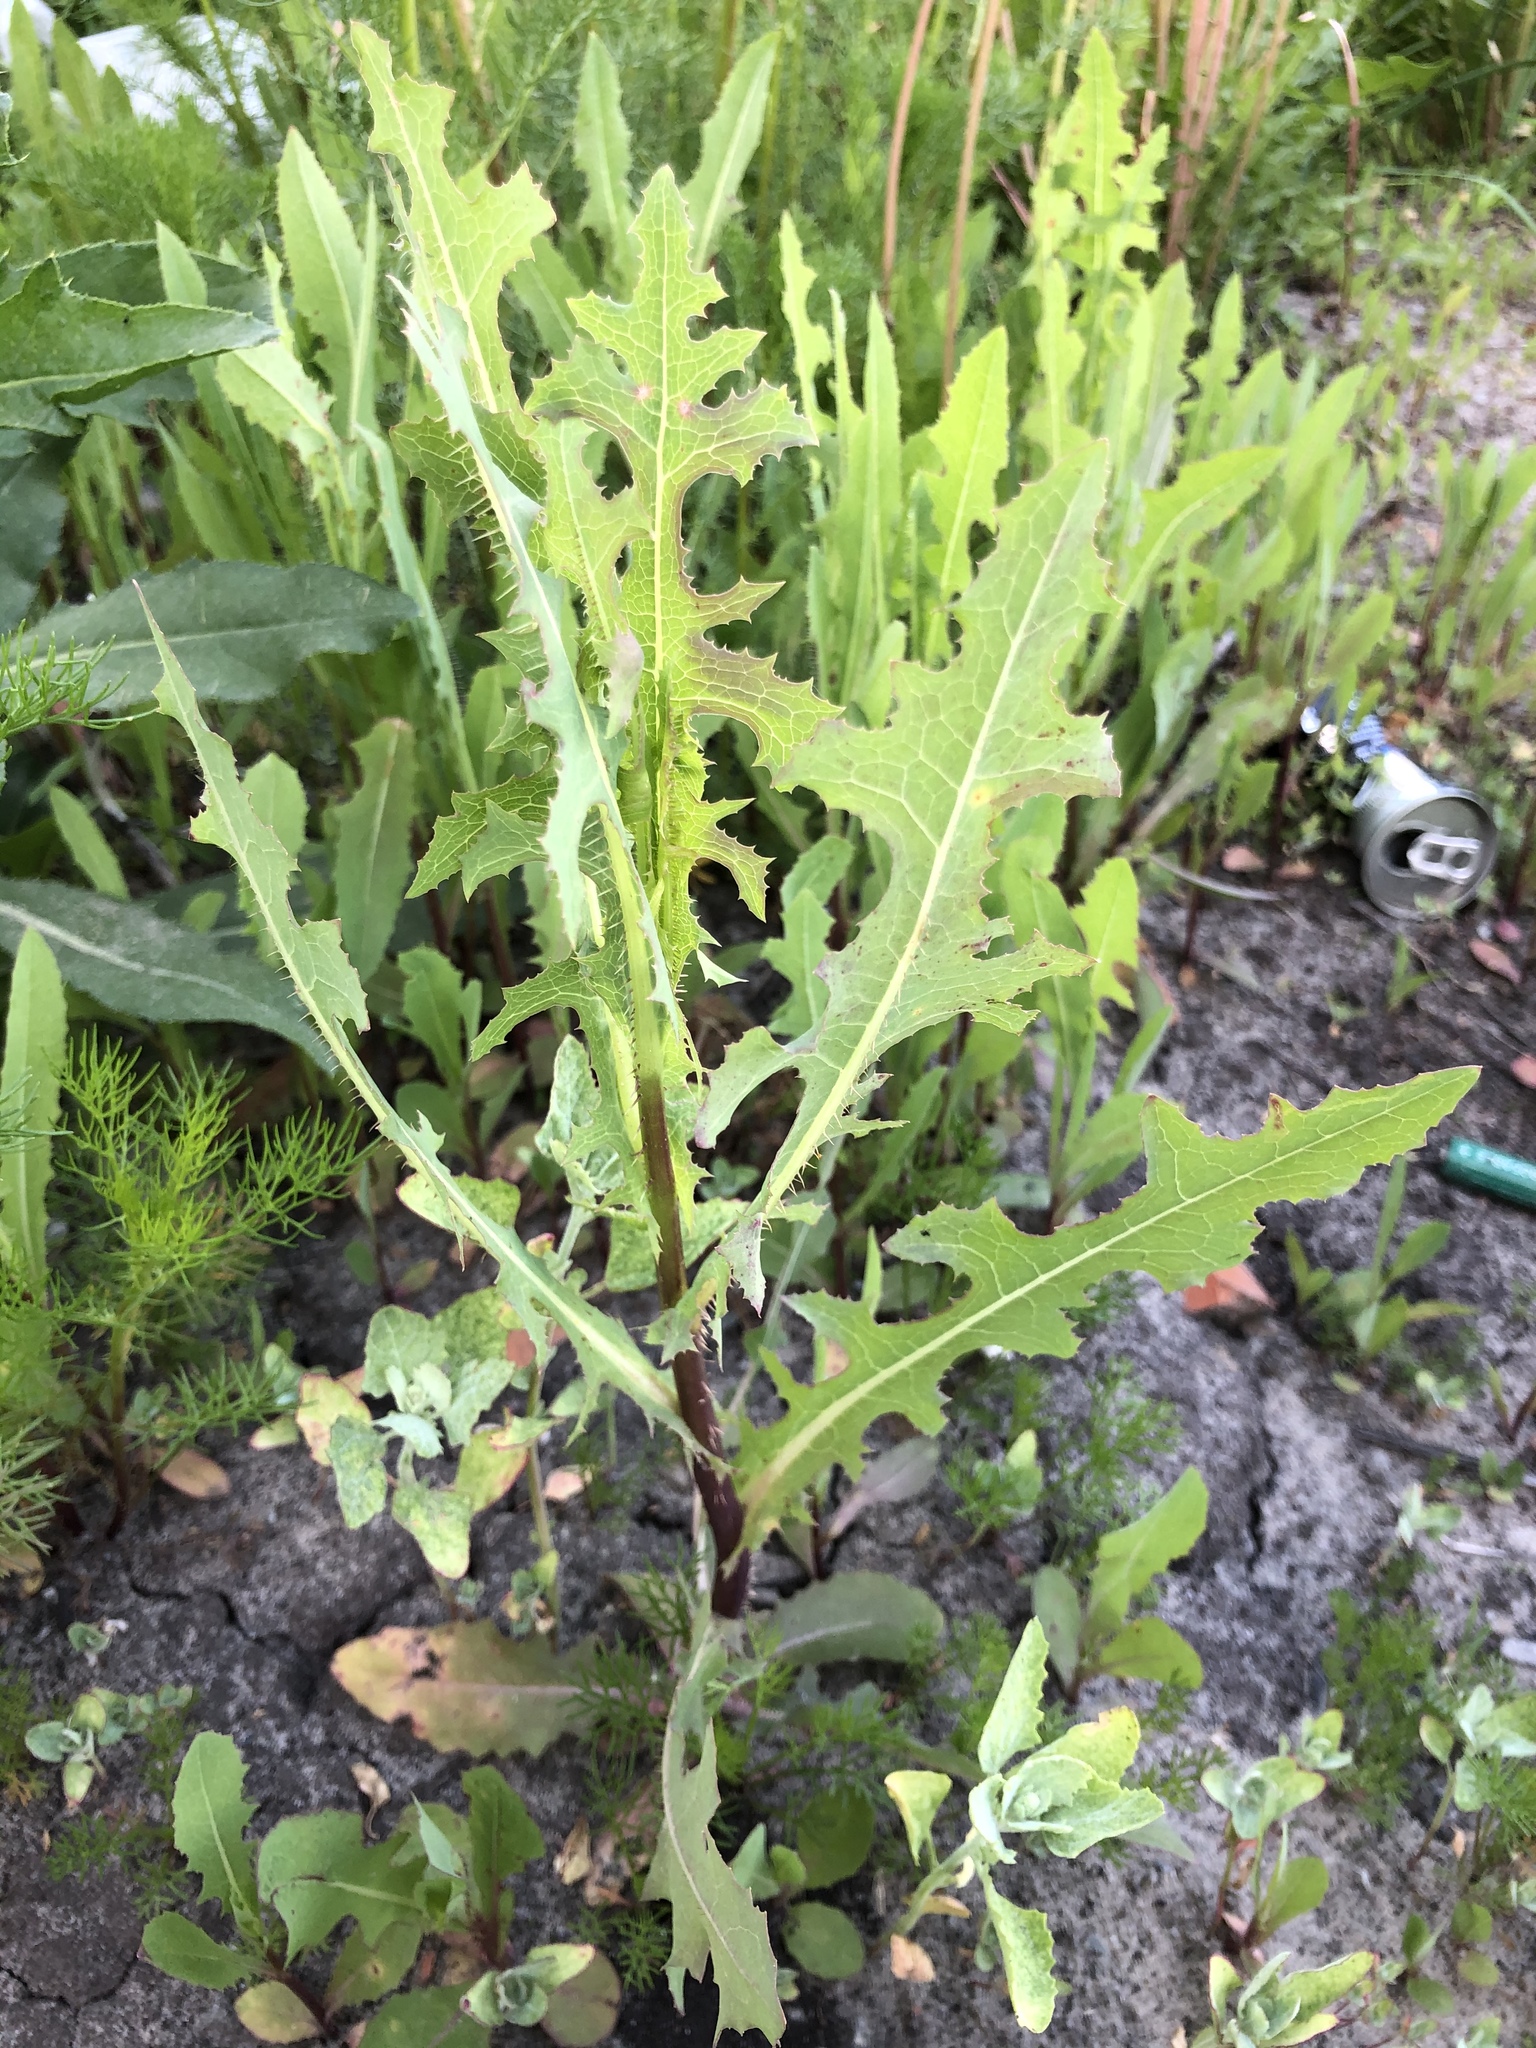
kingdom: Plantae
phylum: Tracheophyta
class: Magnoliopsida
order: Asterales
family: Asteraceae
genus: Lactuca
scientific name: Lactuca serriola
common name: Prickly lettuce
